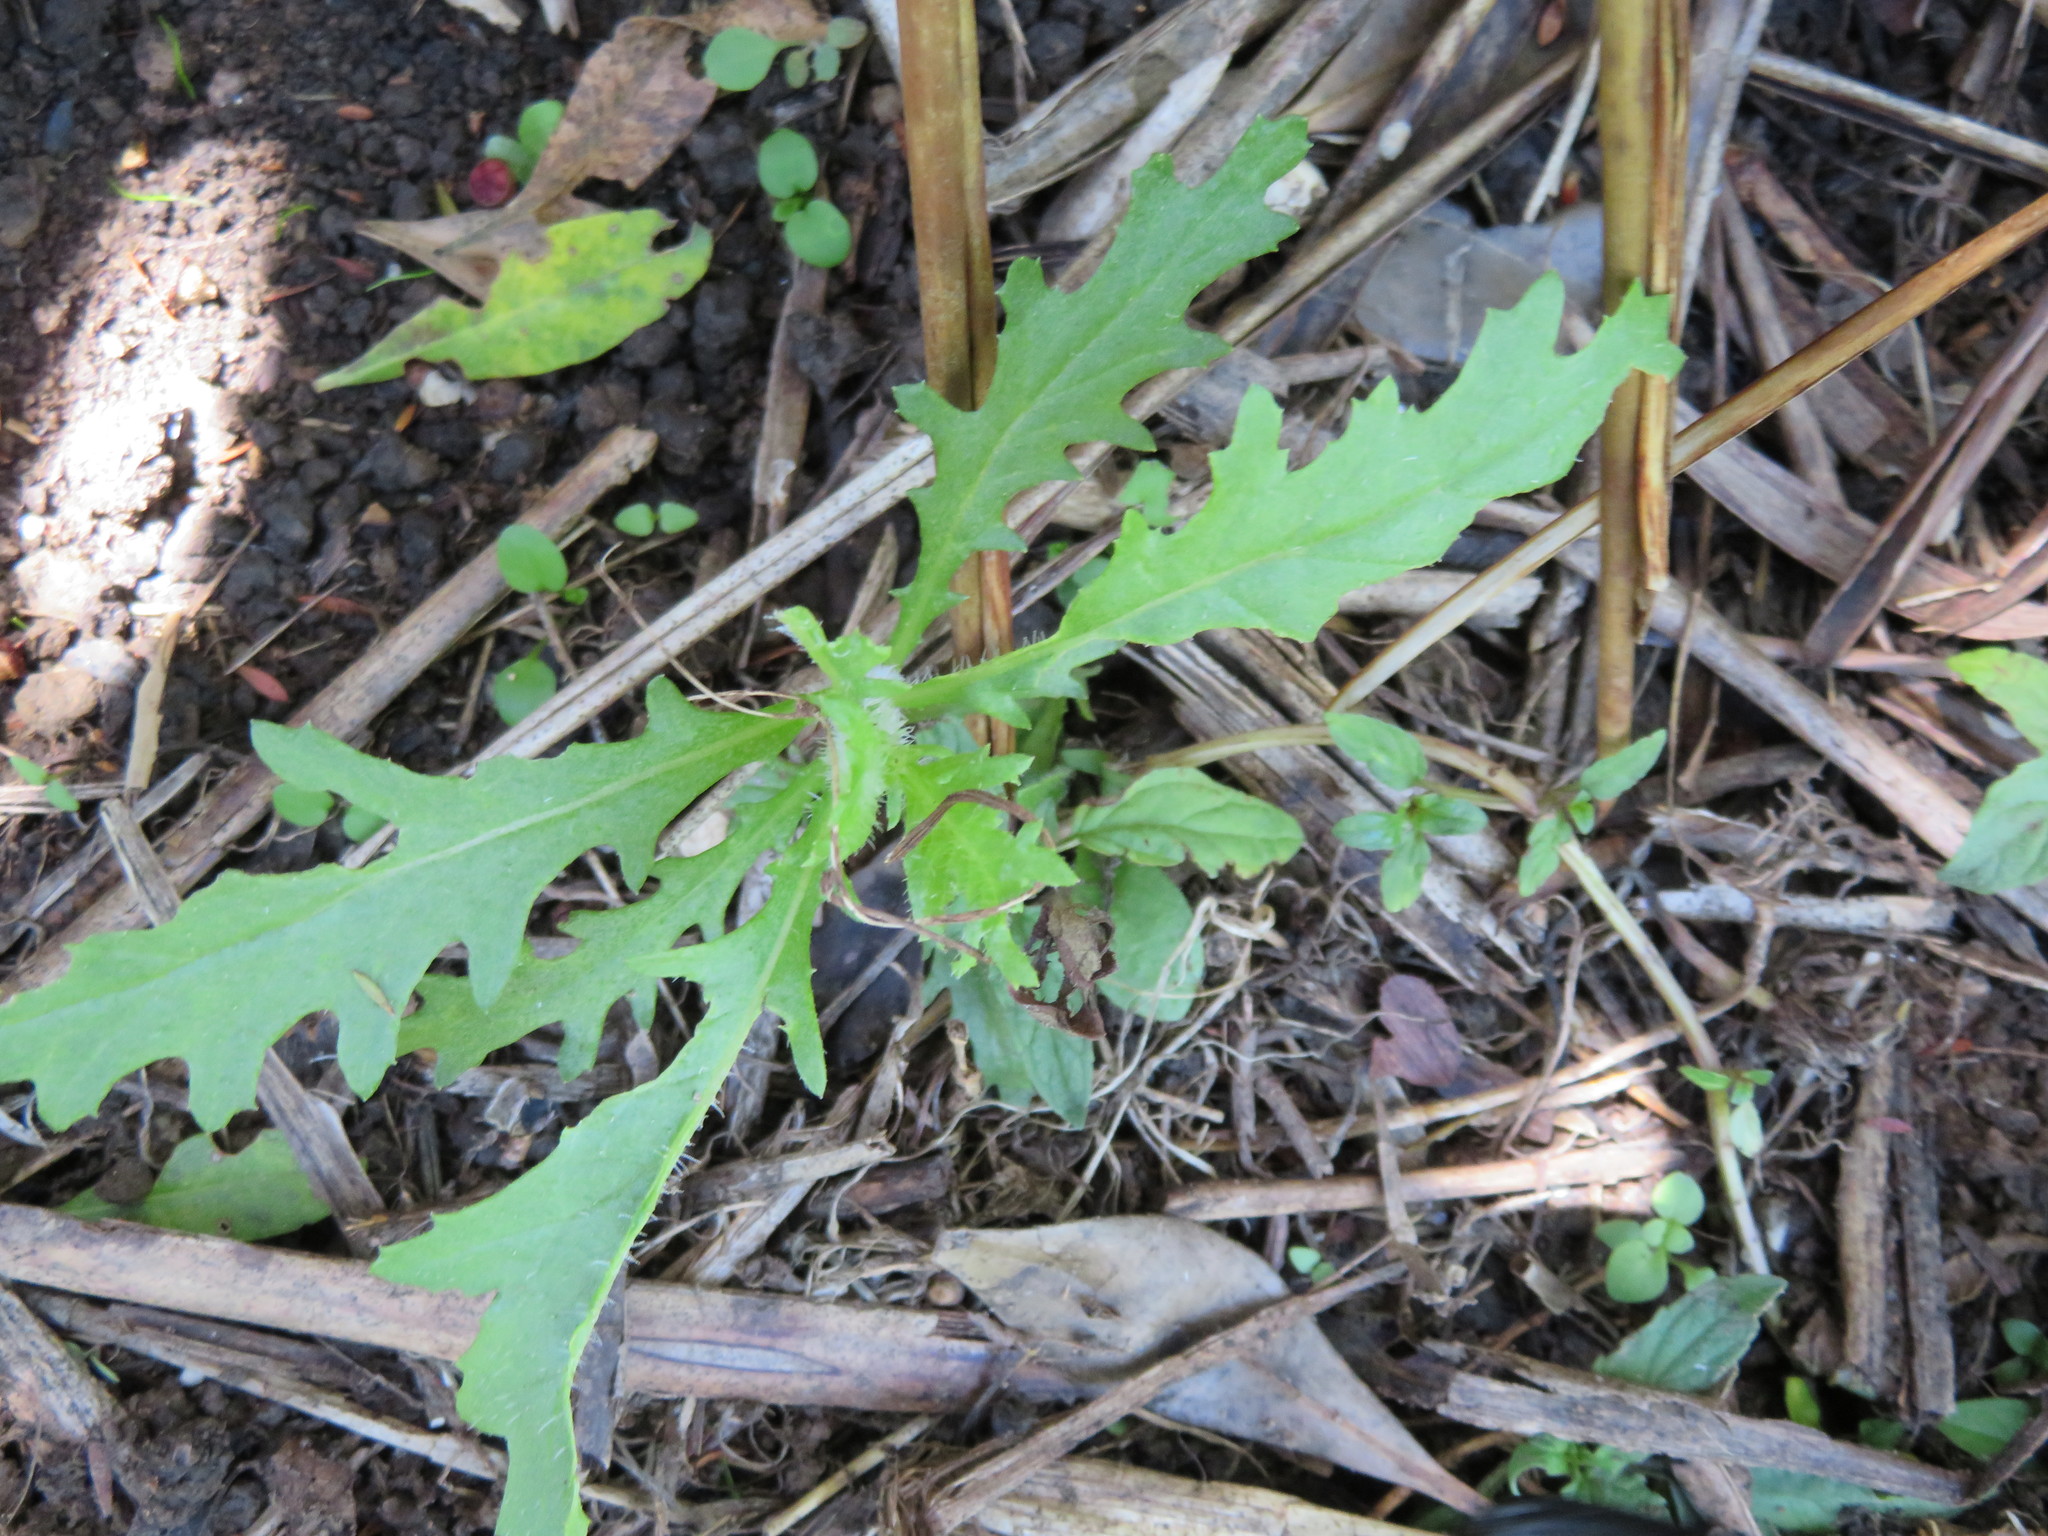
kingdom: Plantae
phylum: Tracheophyta
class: Magnoliopsida
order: Asterales
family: Asteraceae
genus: Senecio
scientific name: Senecio esleri
